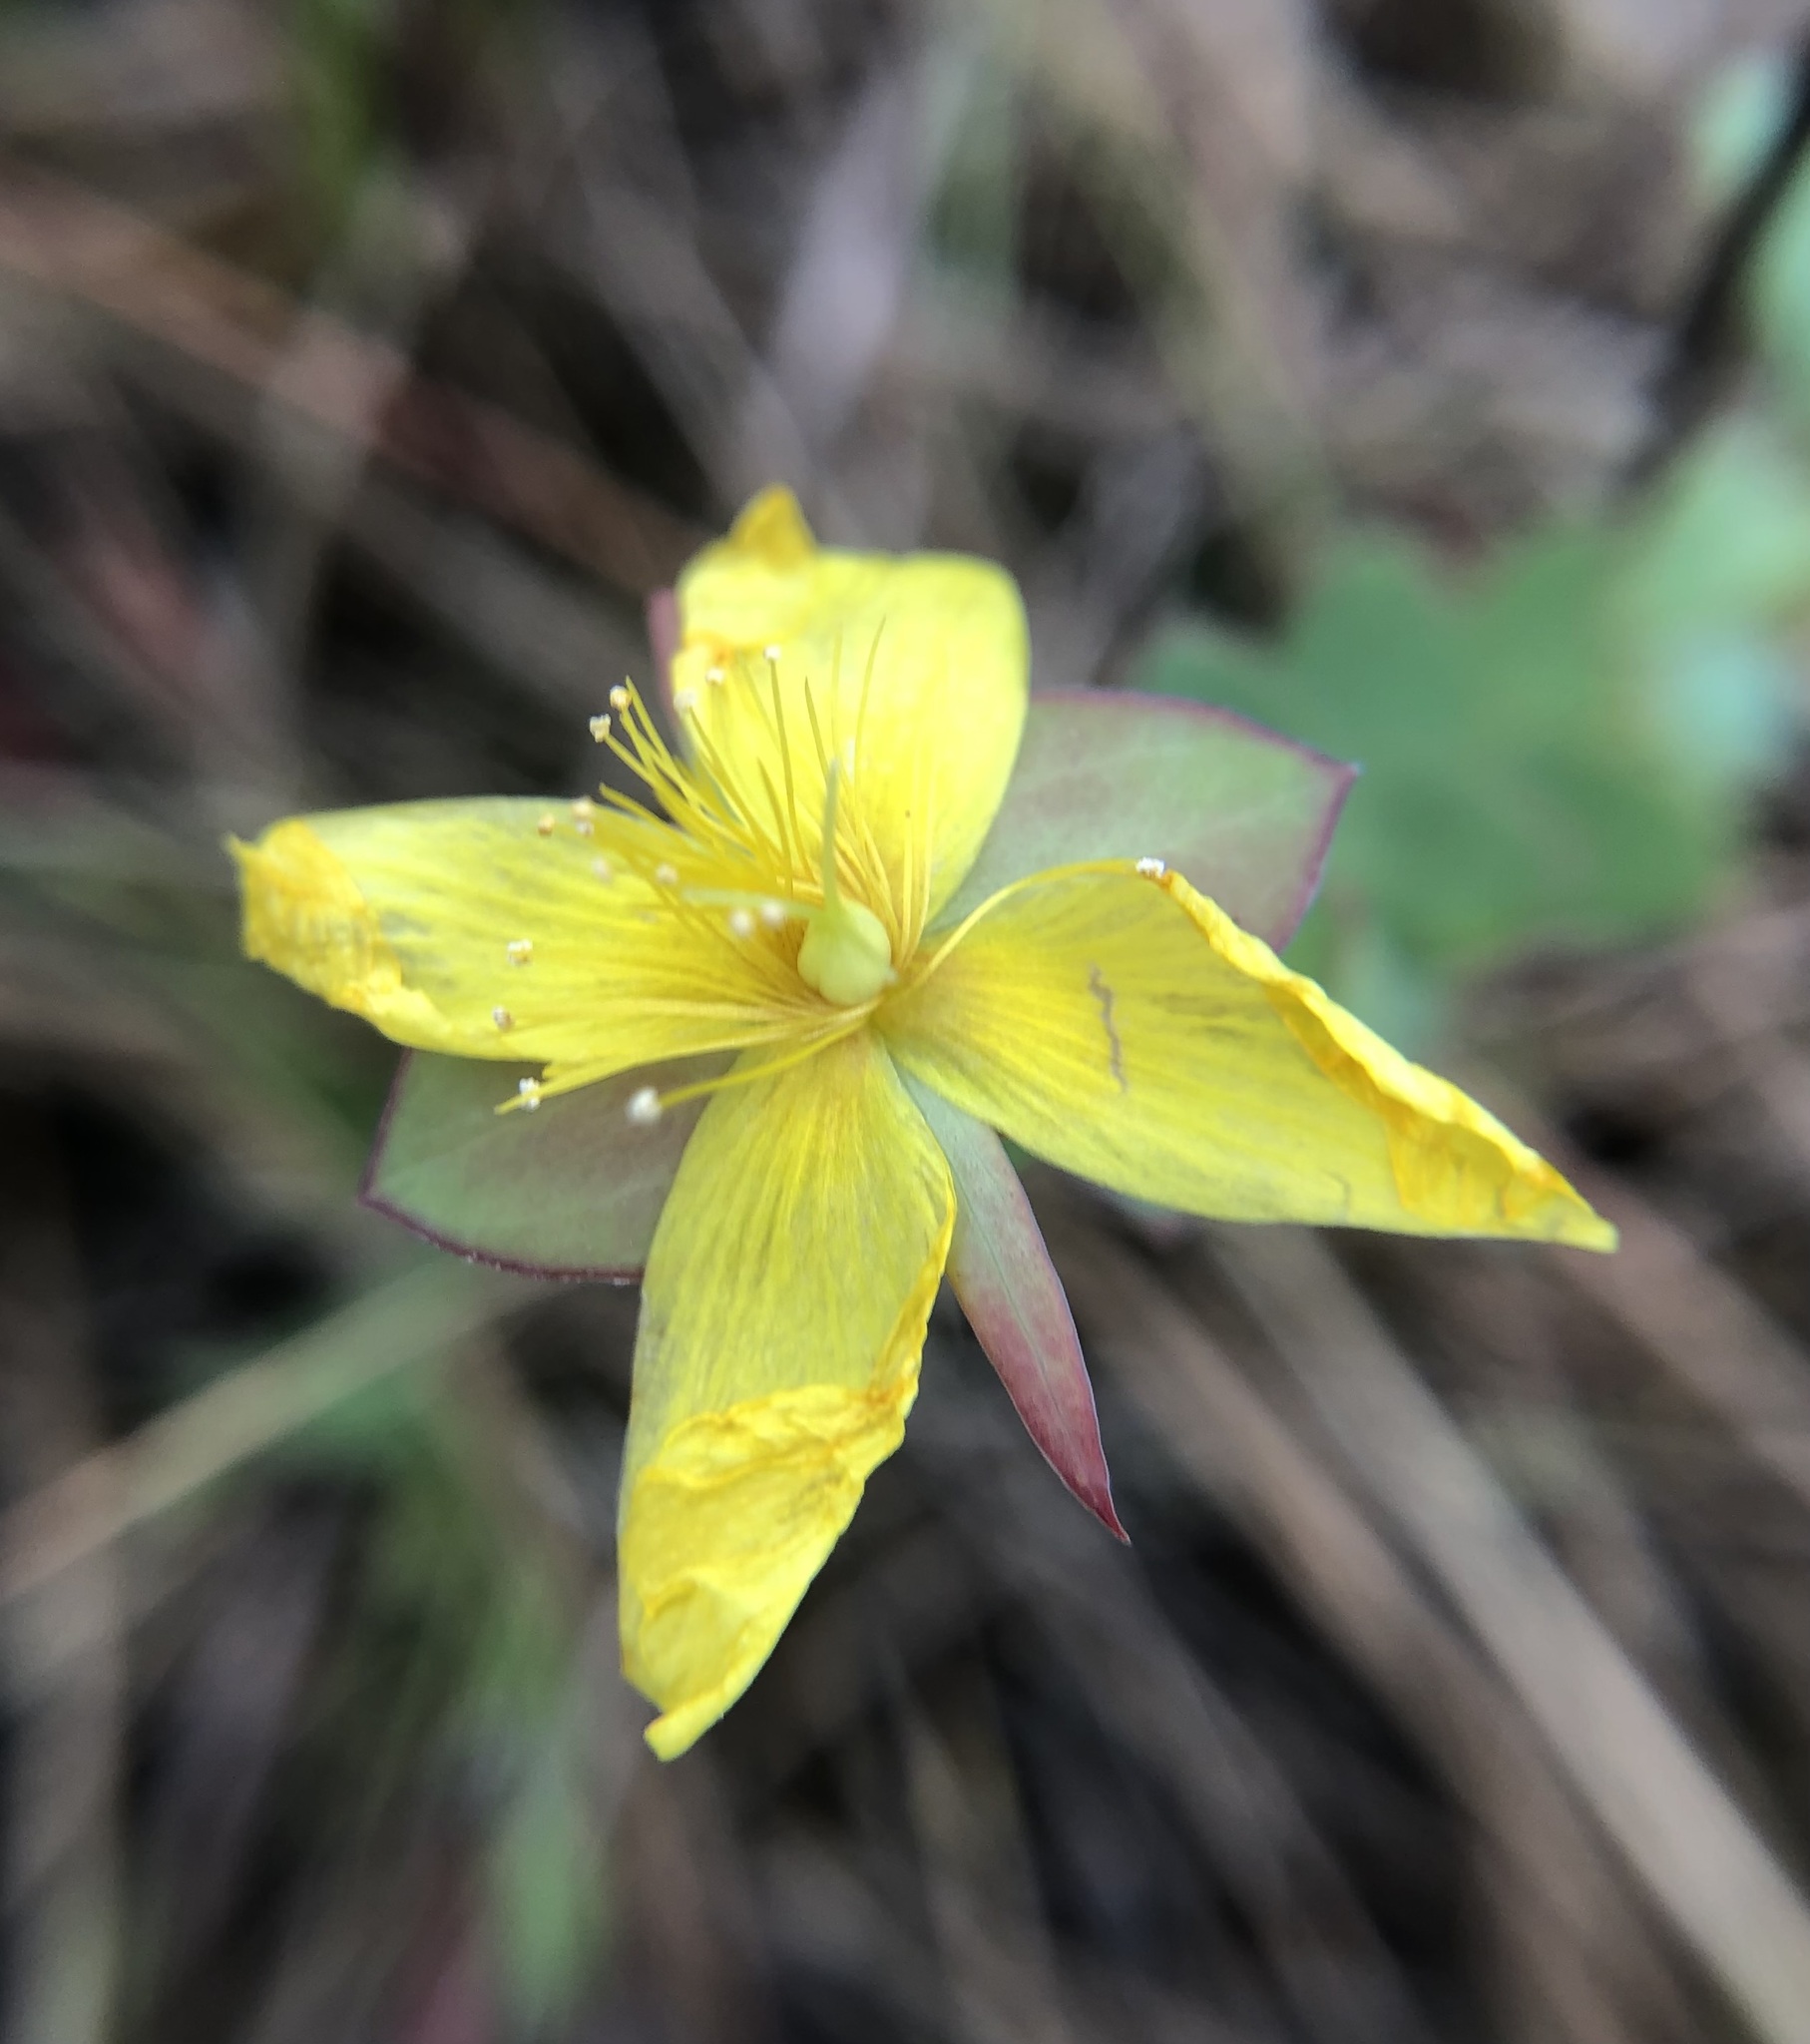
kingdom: Plantae
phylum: Tracheophyta
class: Magnoliopsida
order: Malpighiales
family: Hypericaceae
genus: Hypericum
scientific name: Hypericum tetrapetalum
